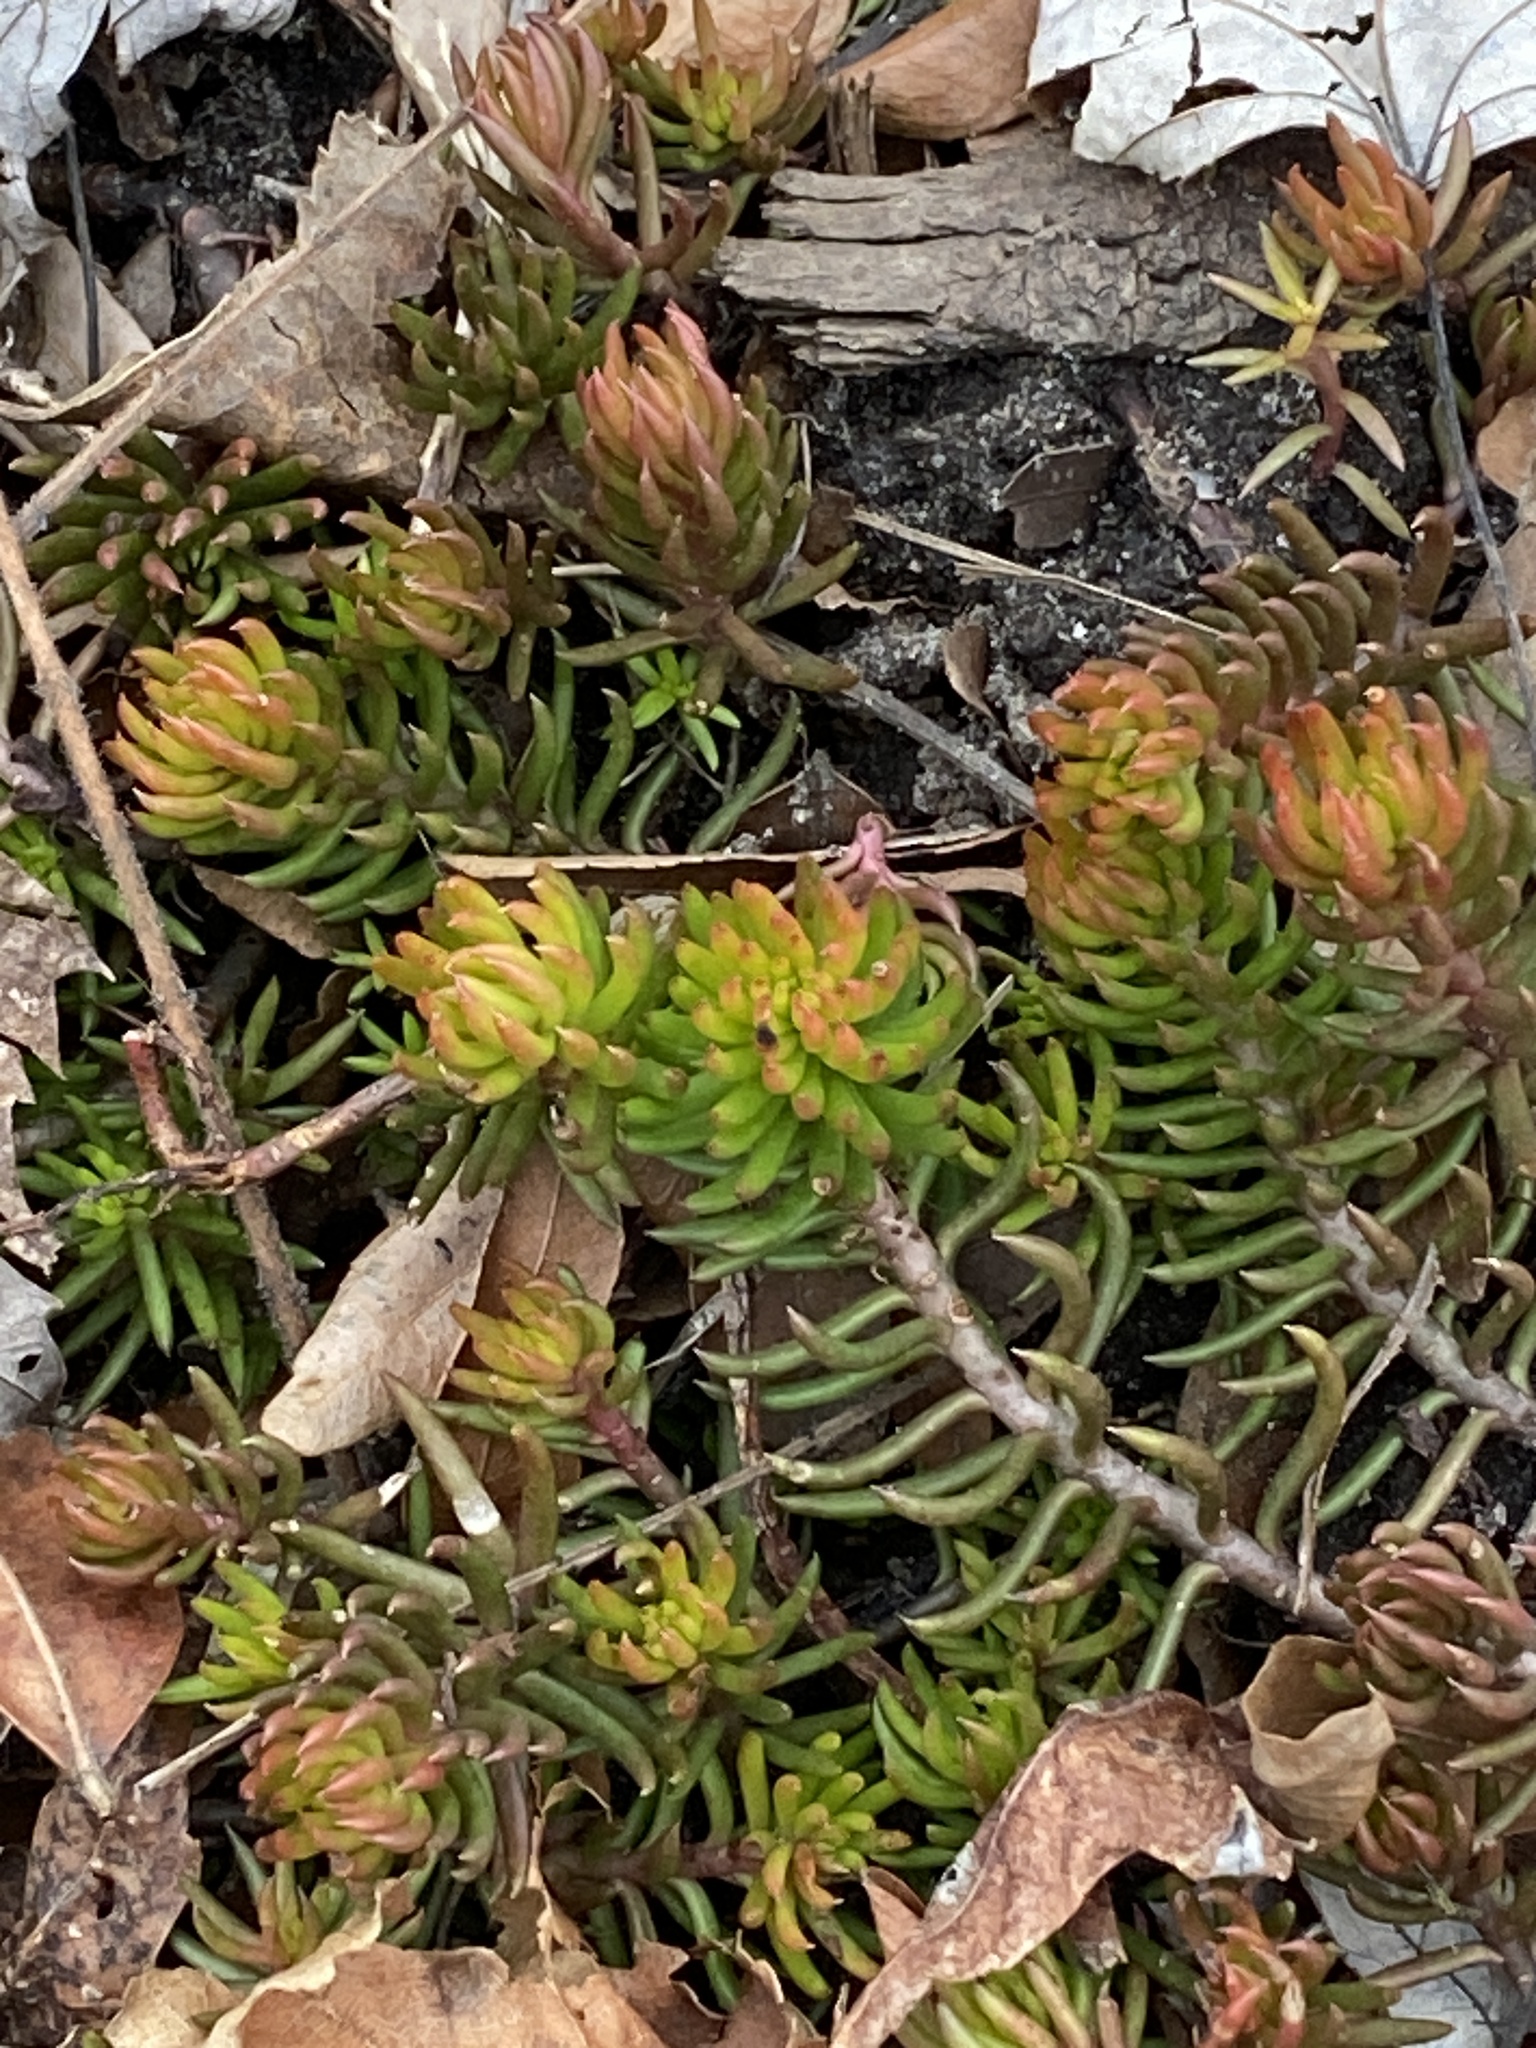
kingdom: Plantae
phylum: Tracheophyta
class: Magnoliopsida
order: Saxifragales
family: Crassulaceae
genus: Petrosedum
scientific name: Petrosedum rupestre
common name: Jenny's stonecrop
